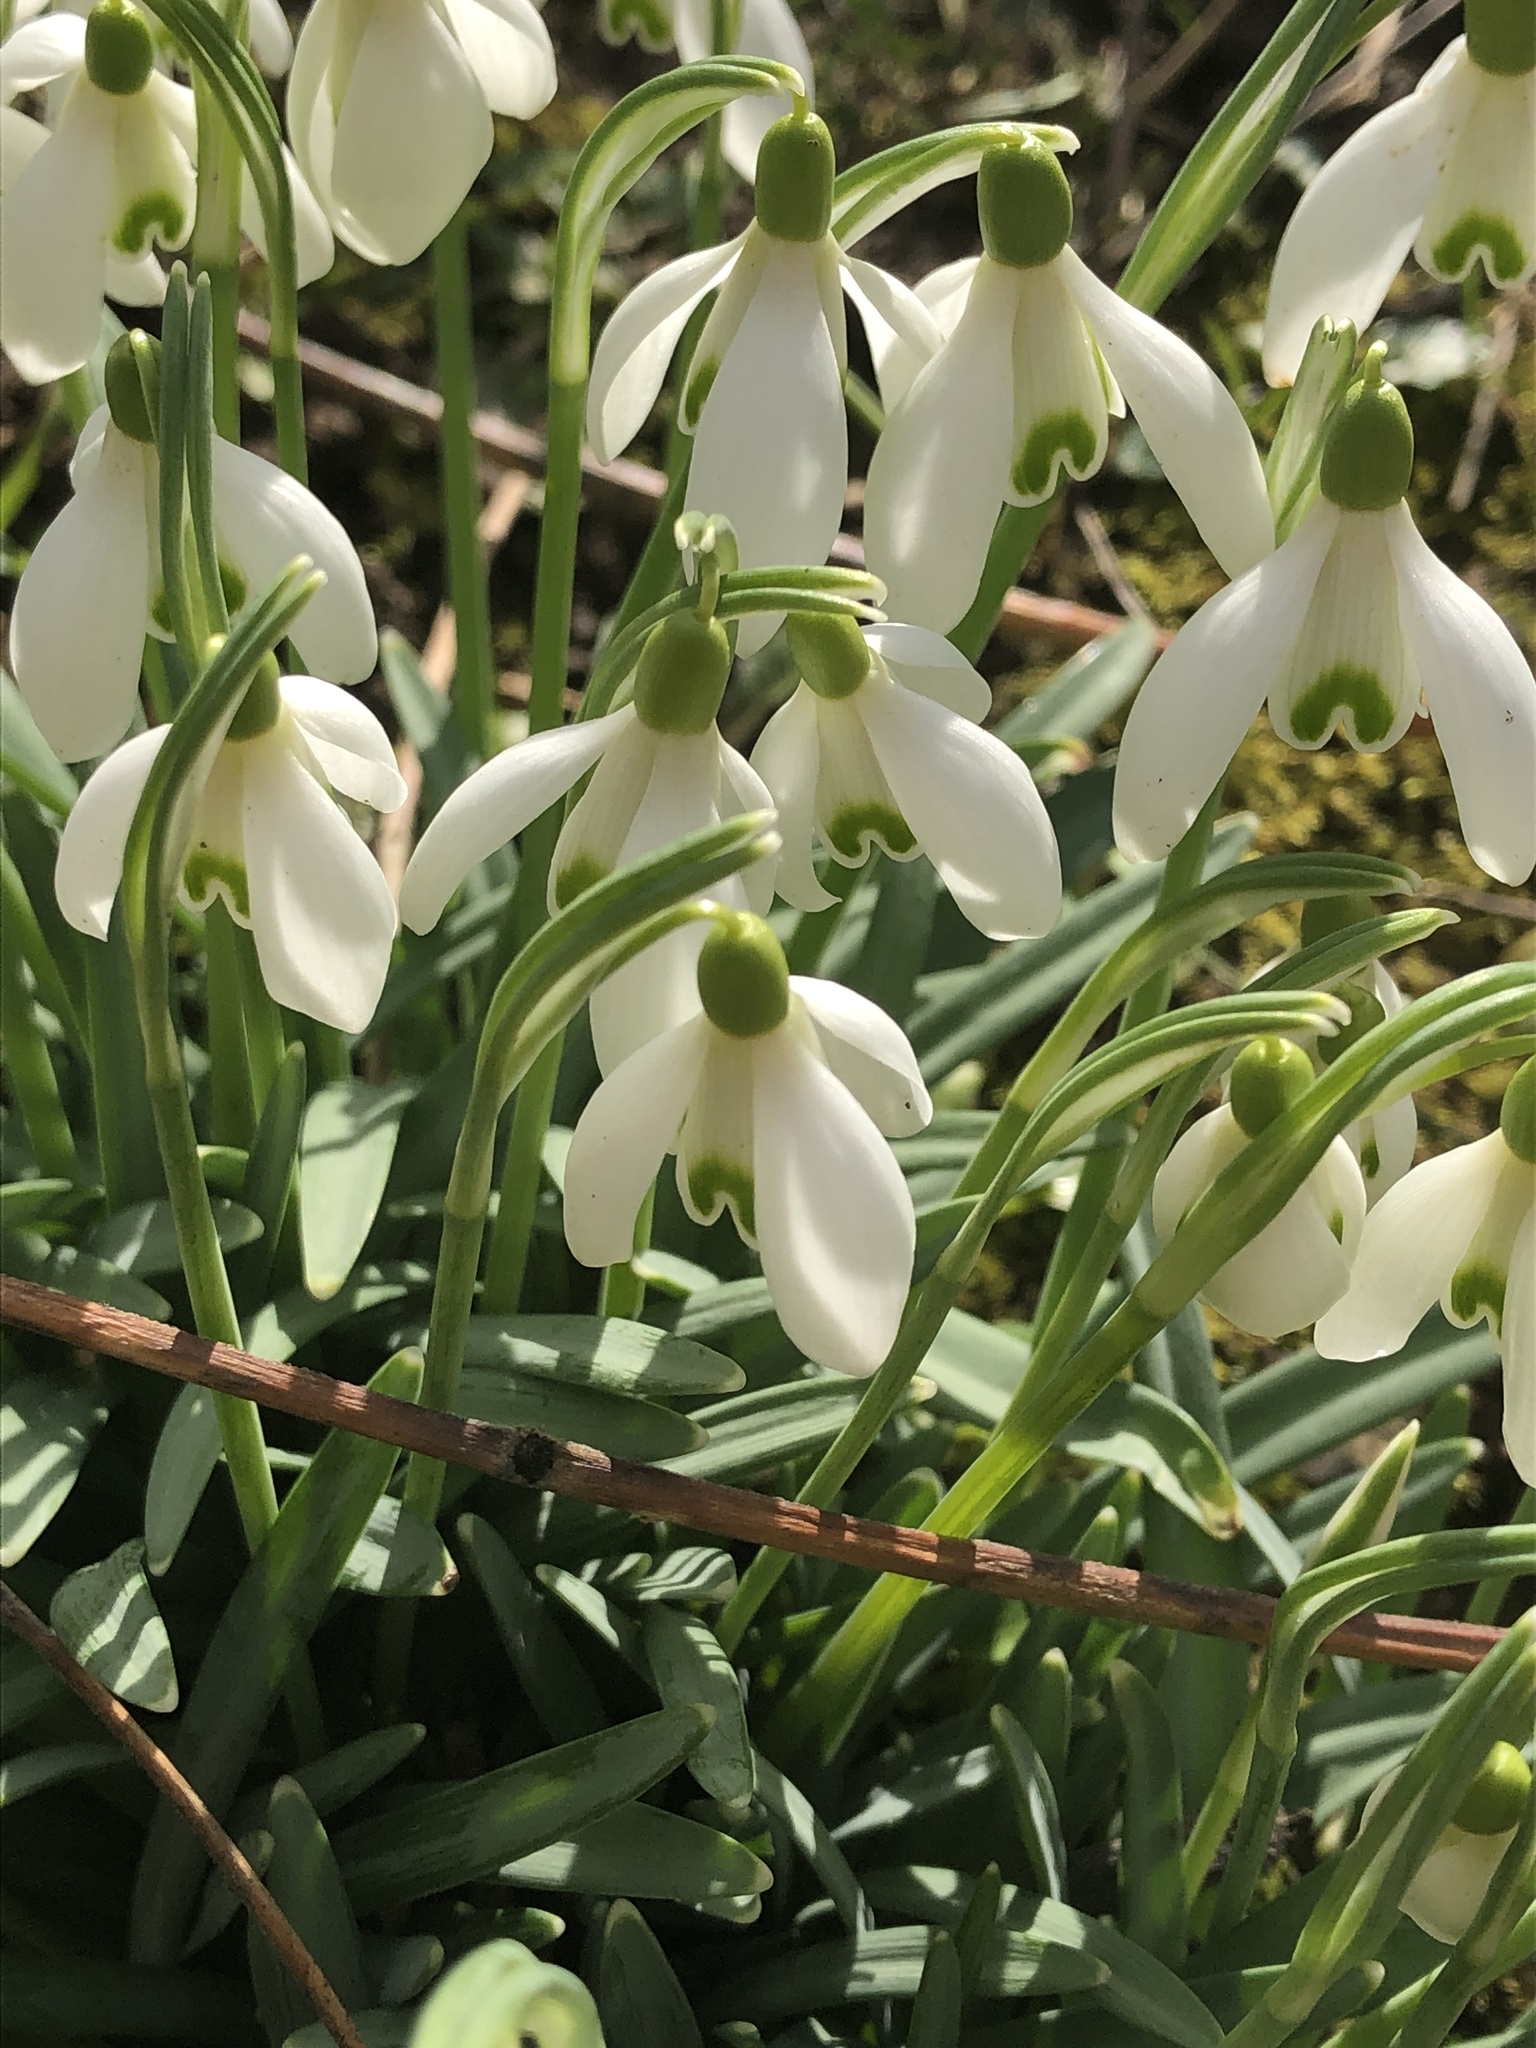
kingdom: Plantae
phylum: Tracheophyta
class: Liliopsida
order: Asparagales
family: Amaryllidaceae
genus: Galanthus
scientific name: Galanthus nivalis
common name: Snowdrop
